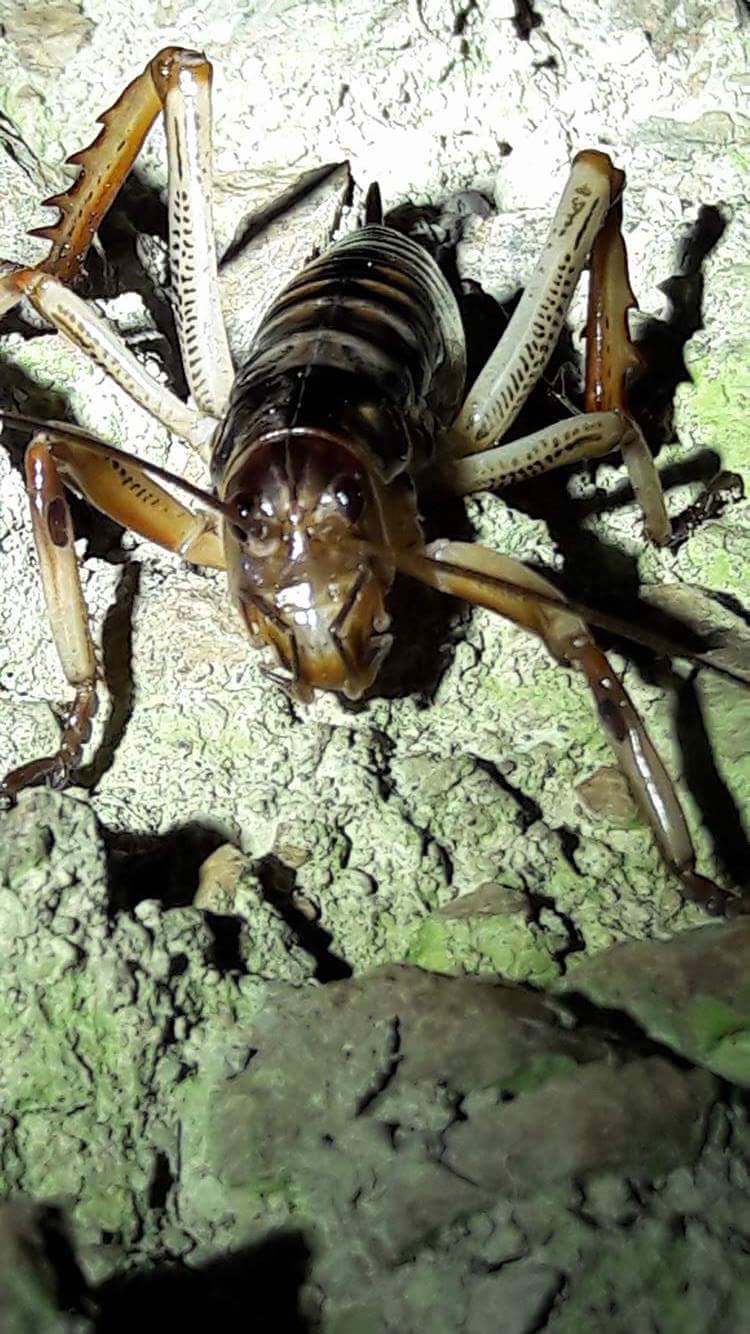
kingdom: Animalia
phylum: Arthropoda
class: Insecta
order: Orthoptera
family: Anostostomatidae
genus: Hemideina
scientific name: Hemideina crassidens
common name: Wellington tree weta
